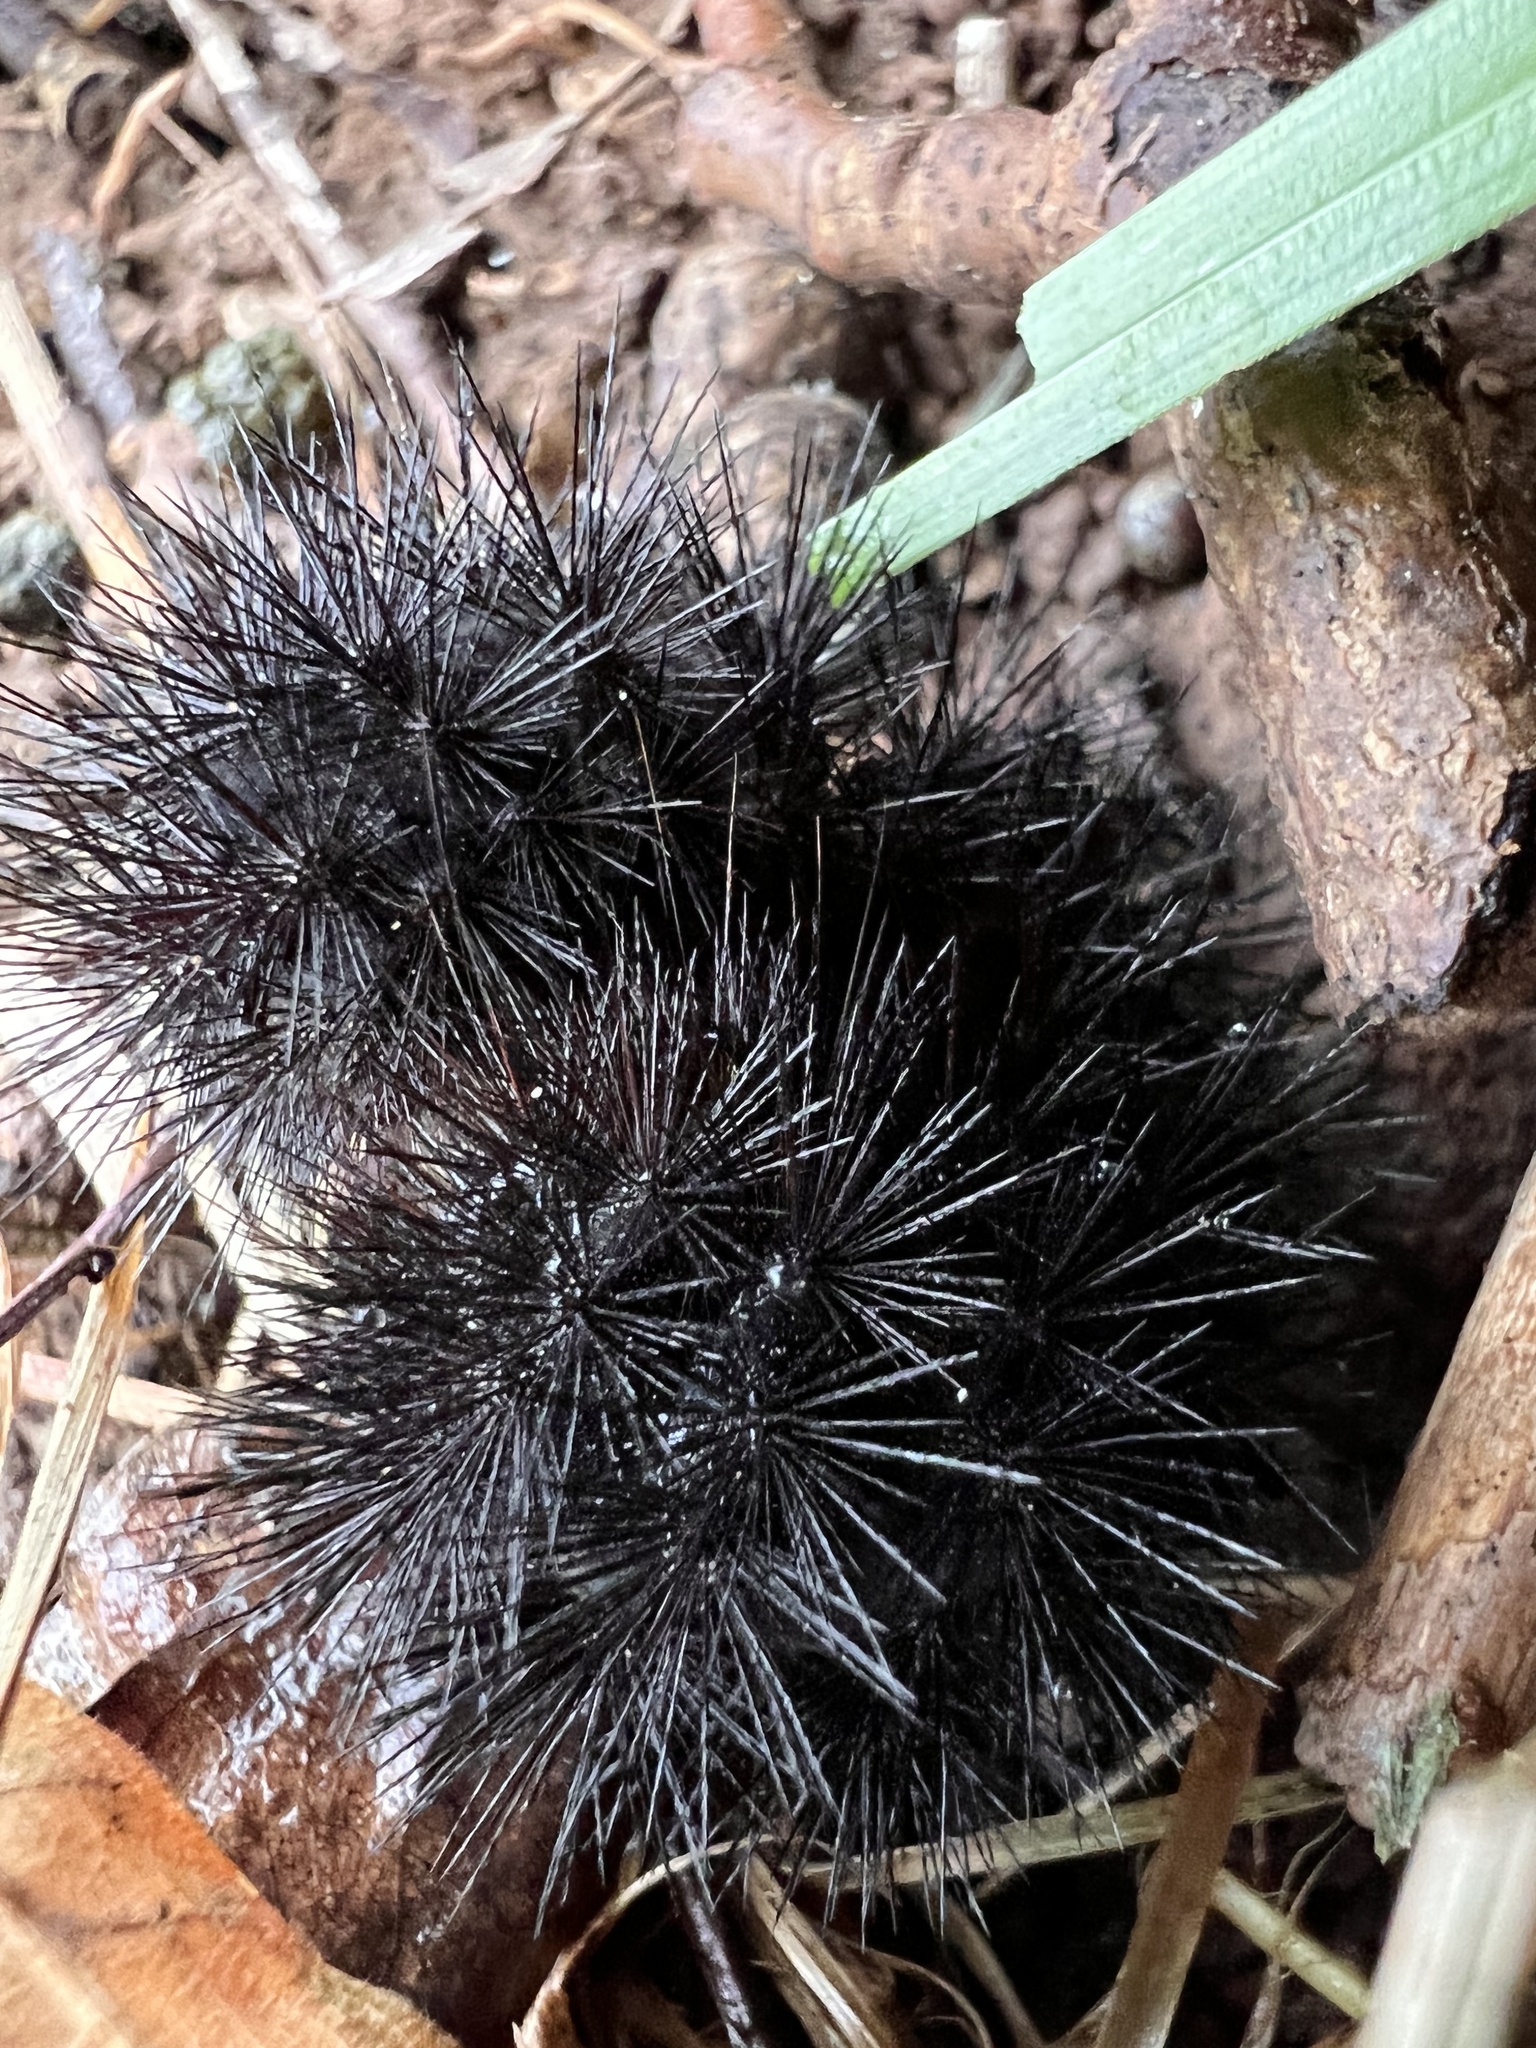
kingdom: Animalia
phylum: Arthropoda
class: Insecta
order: Lepidoptera
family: Erebidae
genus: Hypercompe
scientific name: Hypercompe scribonia
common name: Giant leopard moth
